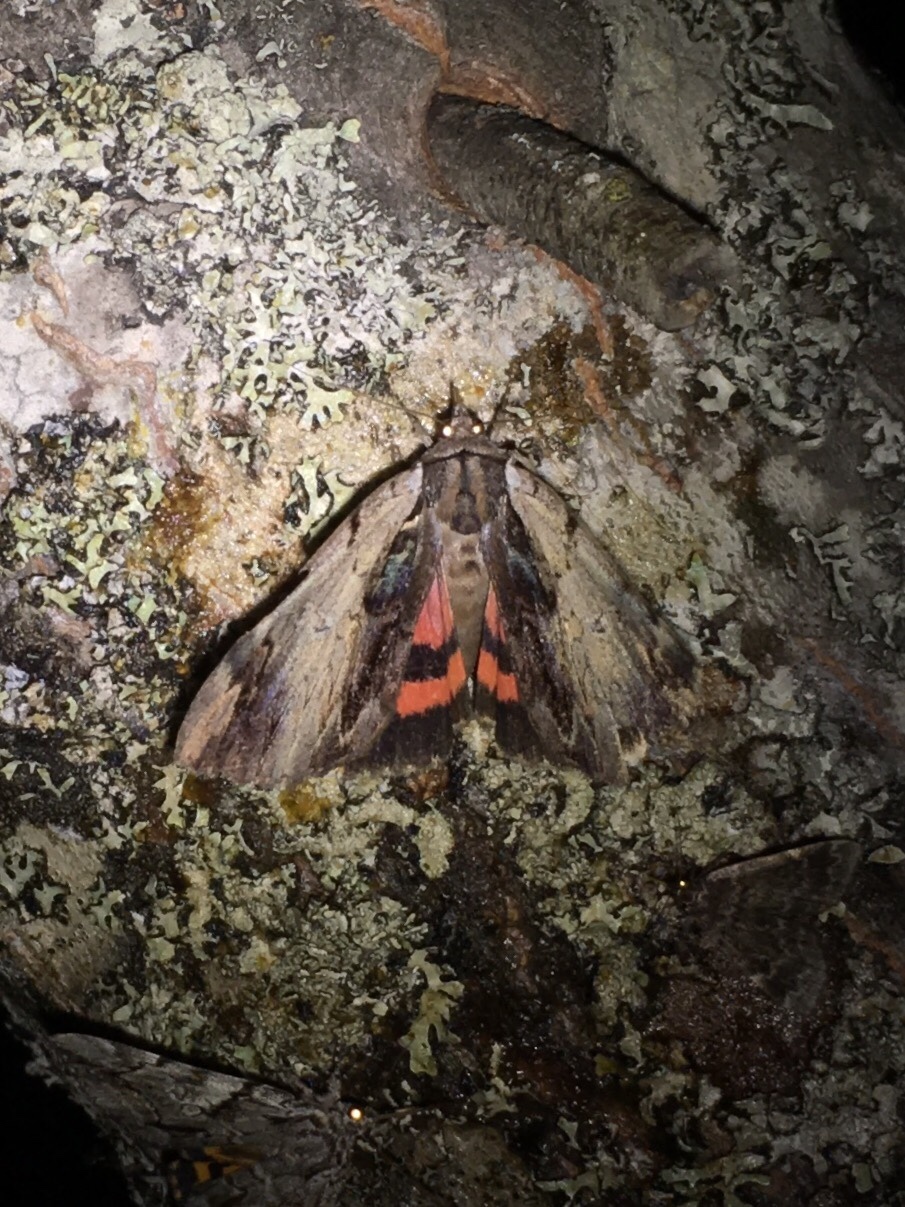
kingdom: Animalia
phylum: Arthropoda
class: Insecta
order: Lepidoptera
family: Erebidae
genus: Catocala
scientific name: Catocala ultronia
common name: Ultronia underwing
